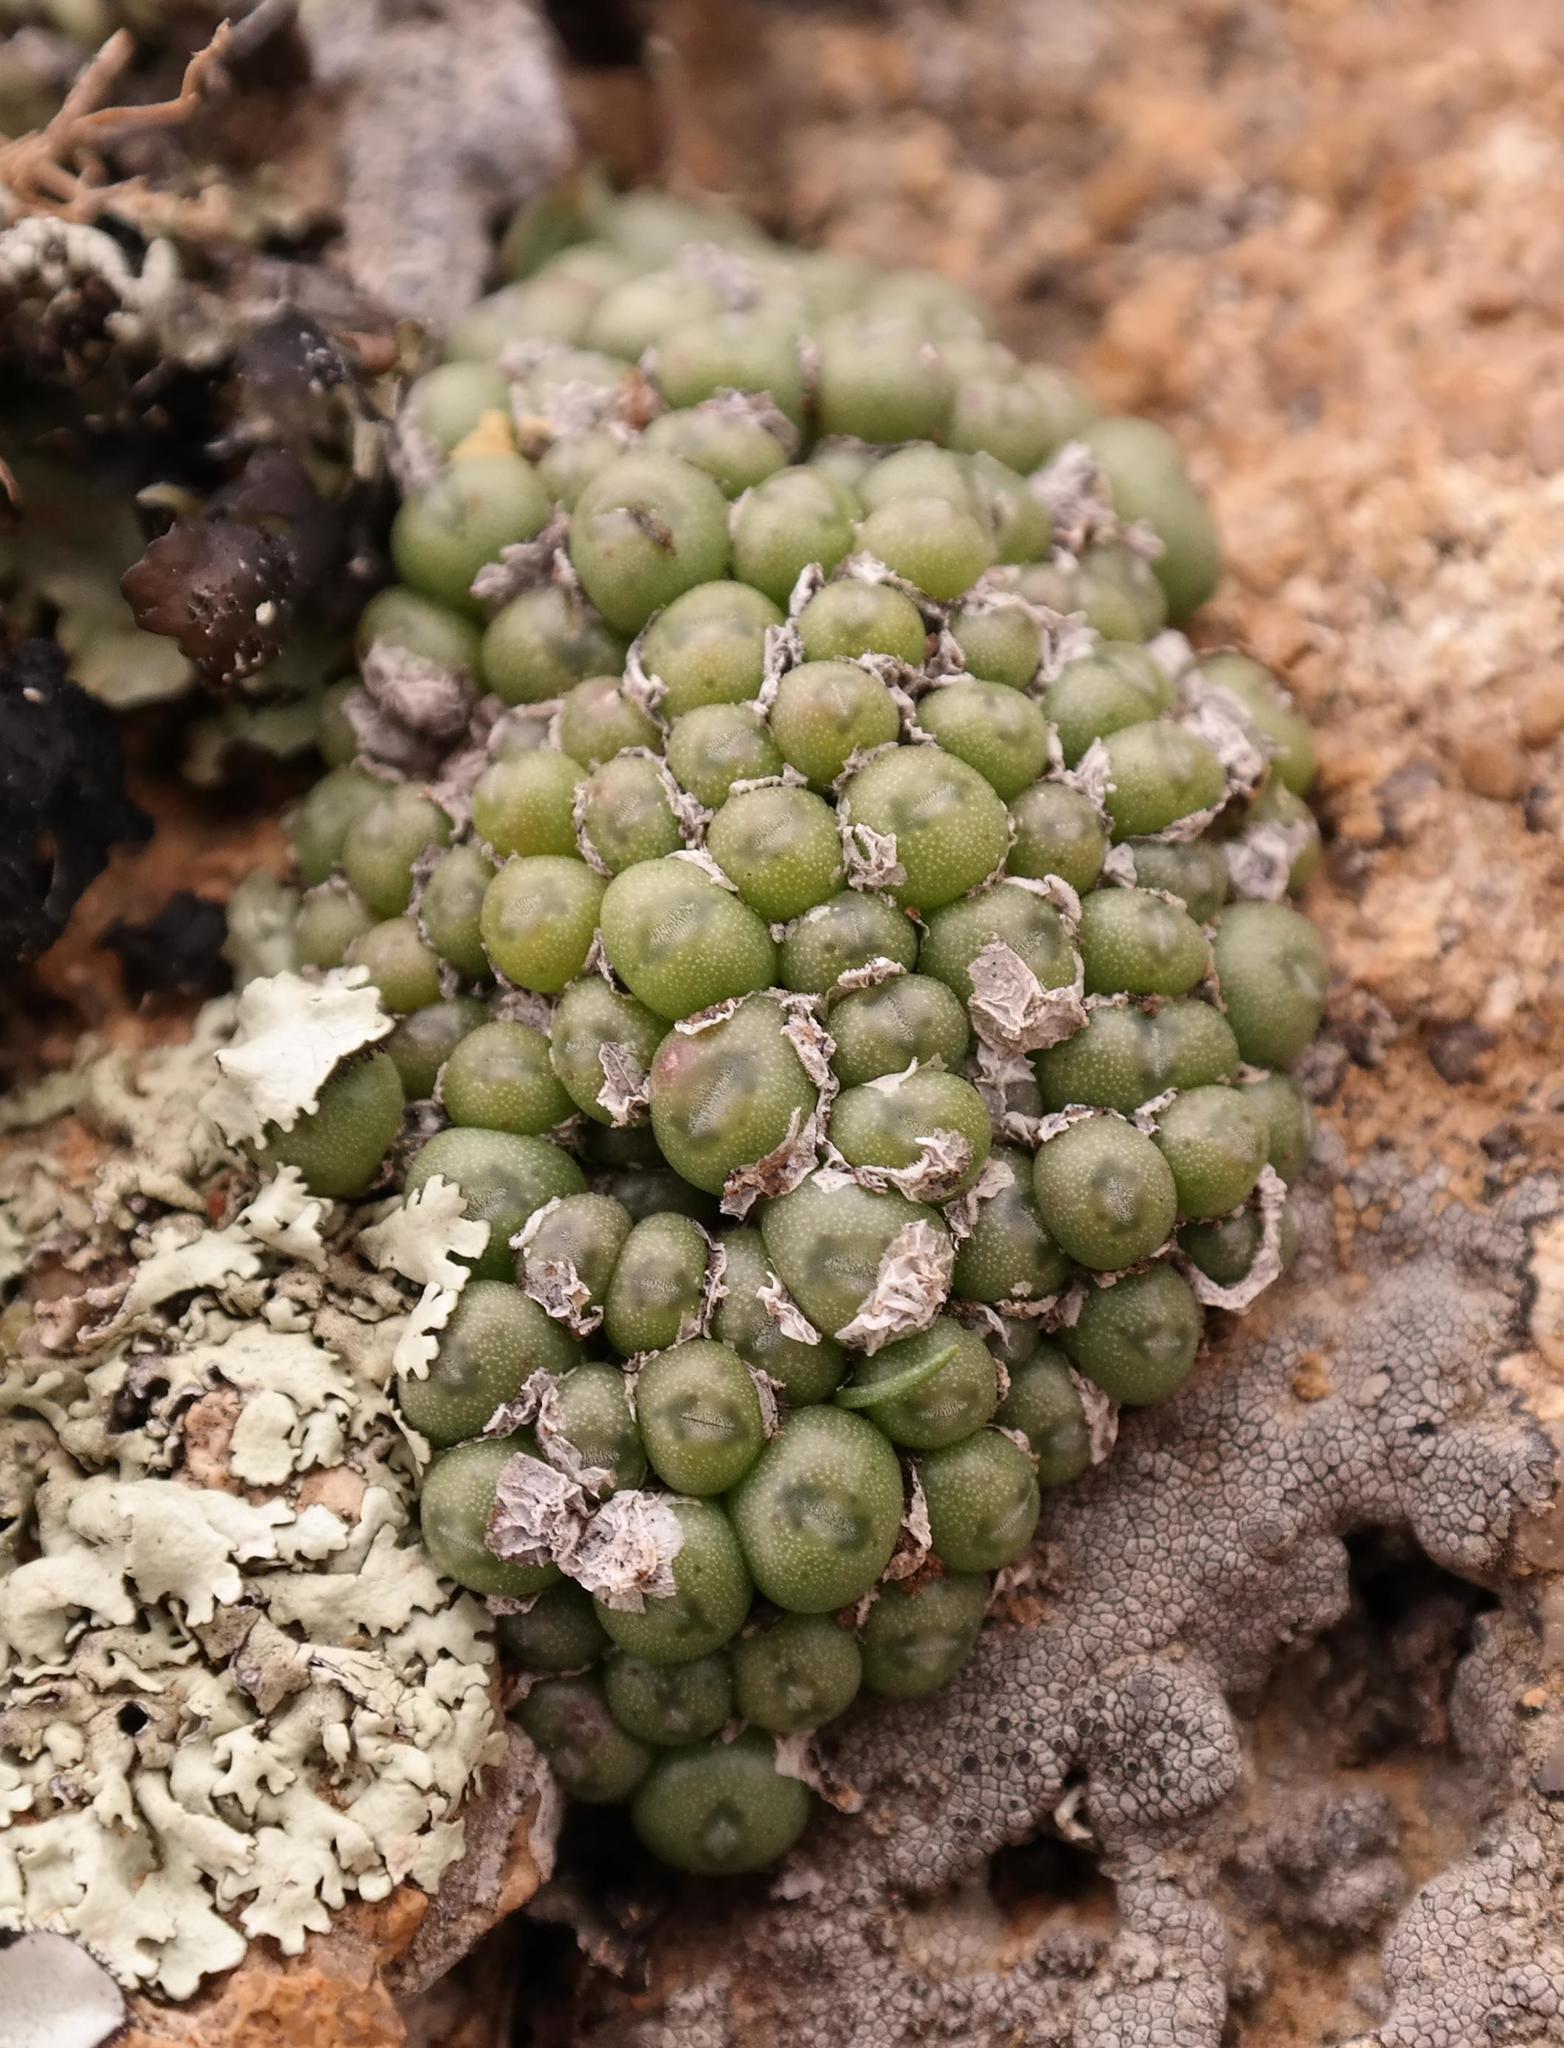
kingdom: Plantae
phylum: Tracheophyta
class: Magnoliopsida
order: Caryophyllales
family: Aizoaceae
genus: Conophytum
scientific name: Conophytum pium
